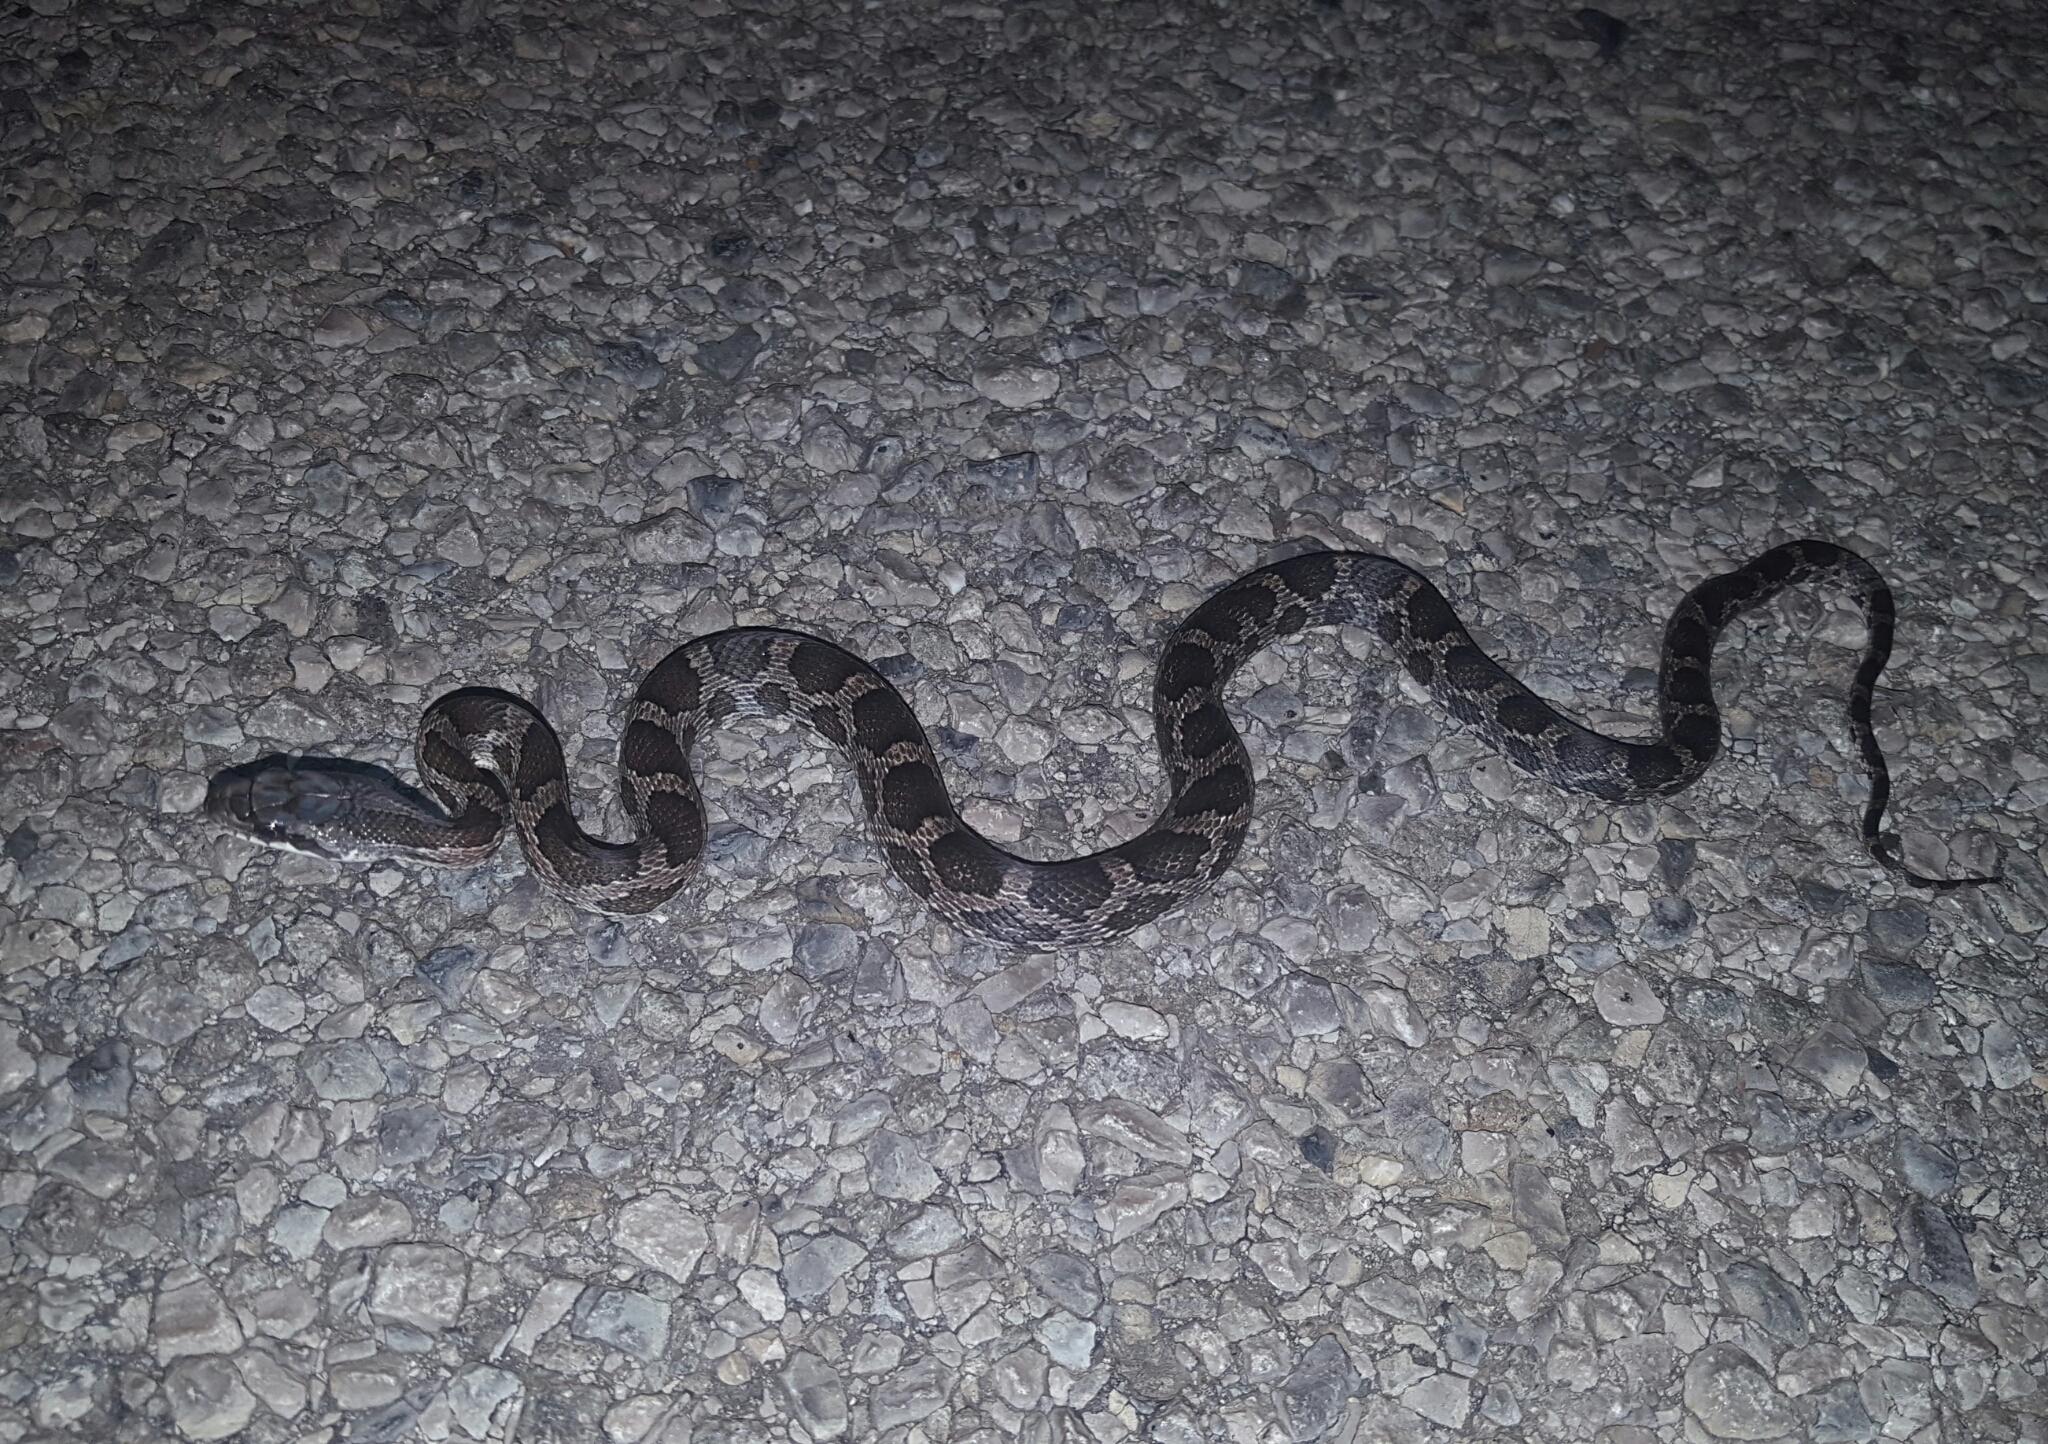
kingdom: Animalia
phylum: Chordata
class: Squamata
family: Colubridae
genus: Pantherophis
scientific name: Pantherophis obsoletus
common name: Black rat snake
